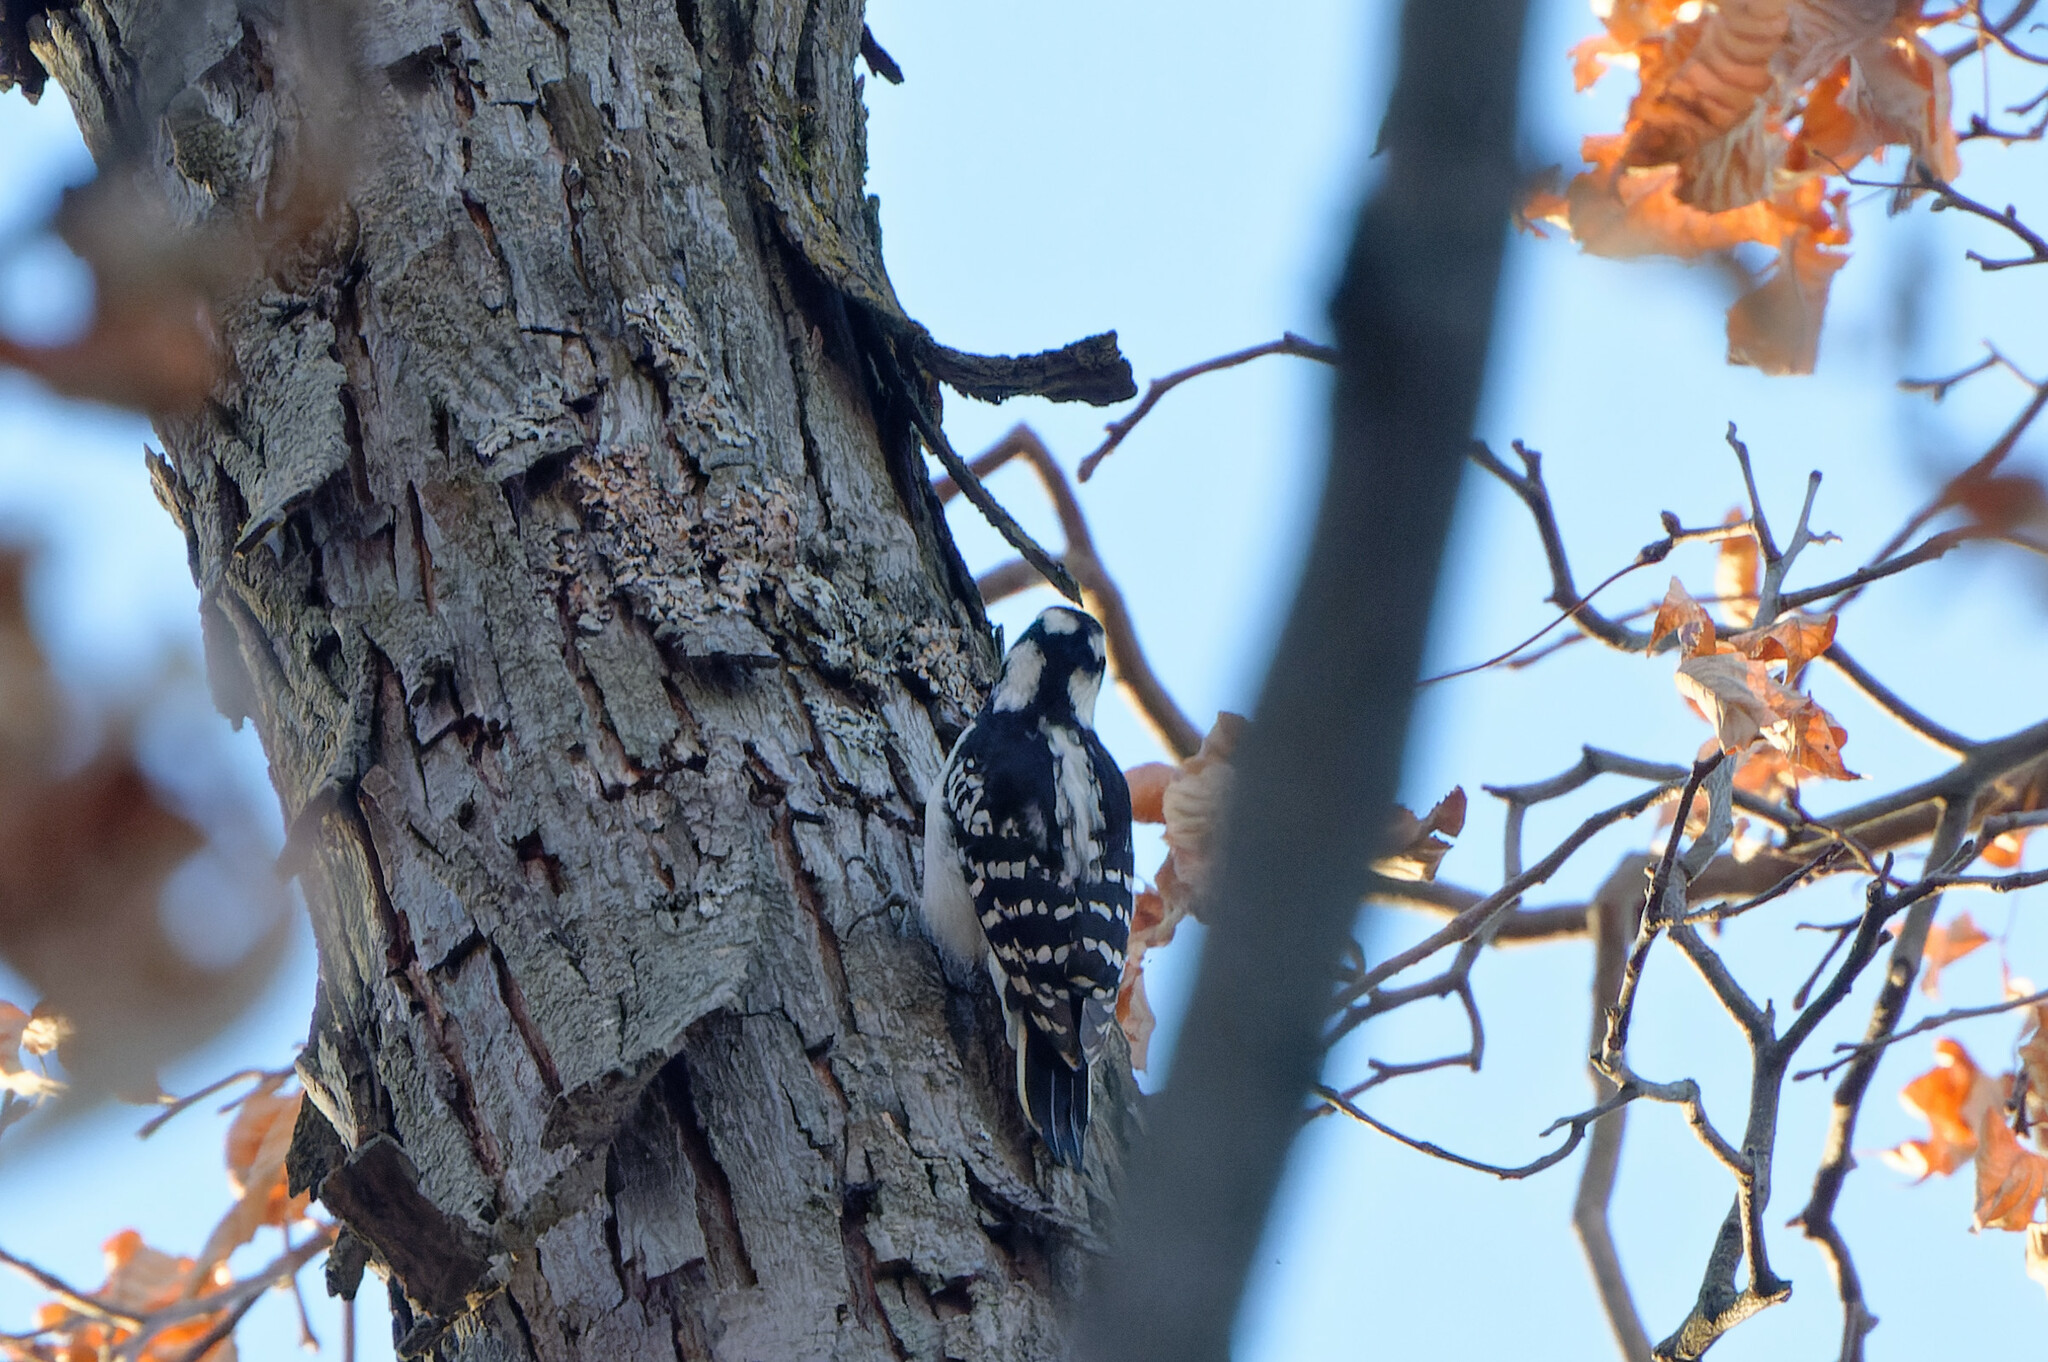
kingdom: Animalia
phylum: Chordata
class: Aves
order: Piciformes
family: Picidae
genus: Leuconotopicus
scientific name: Leuconotopicus villosus
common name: Hairy woodpecker
